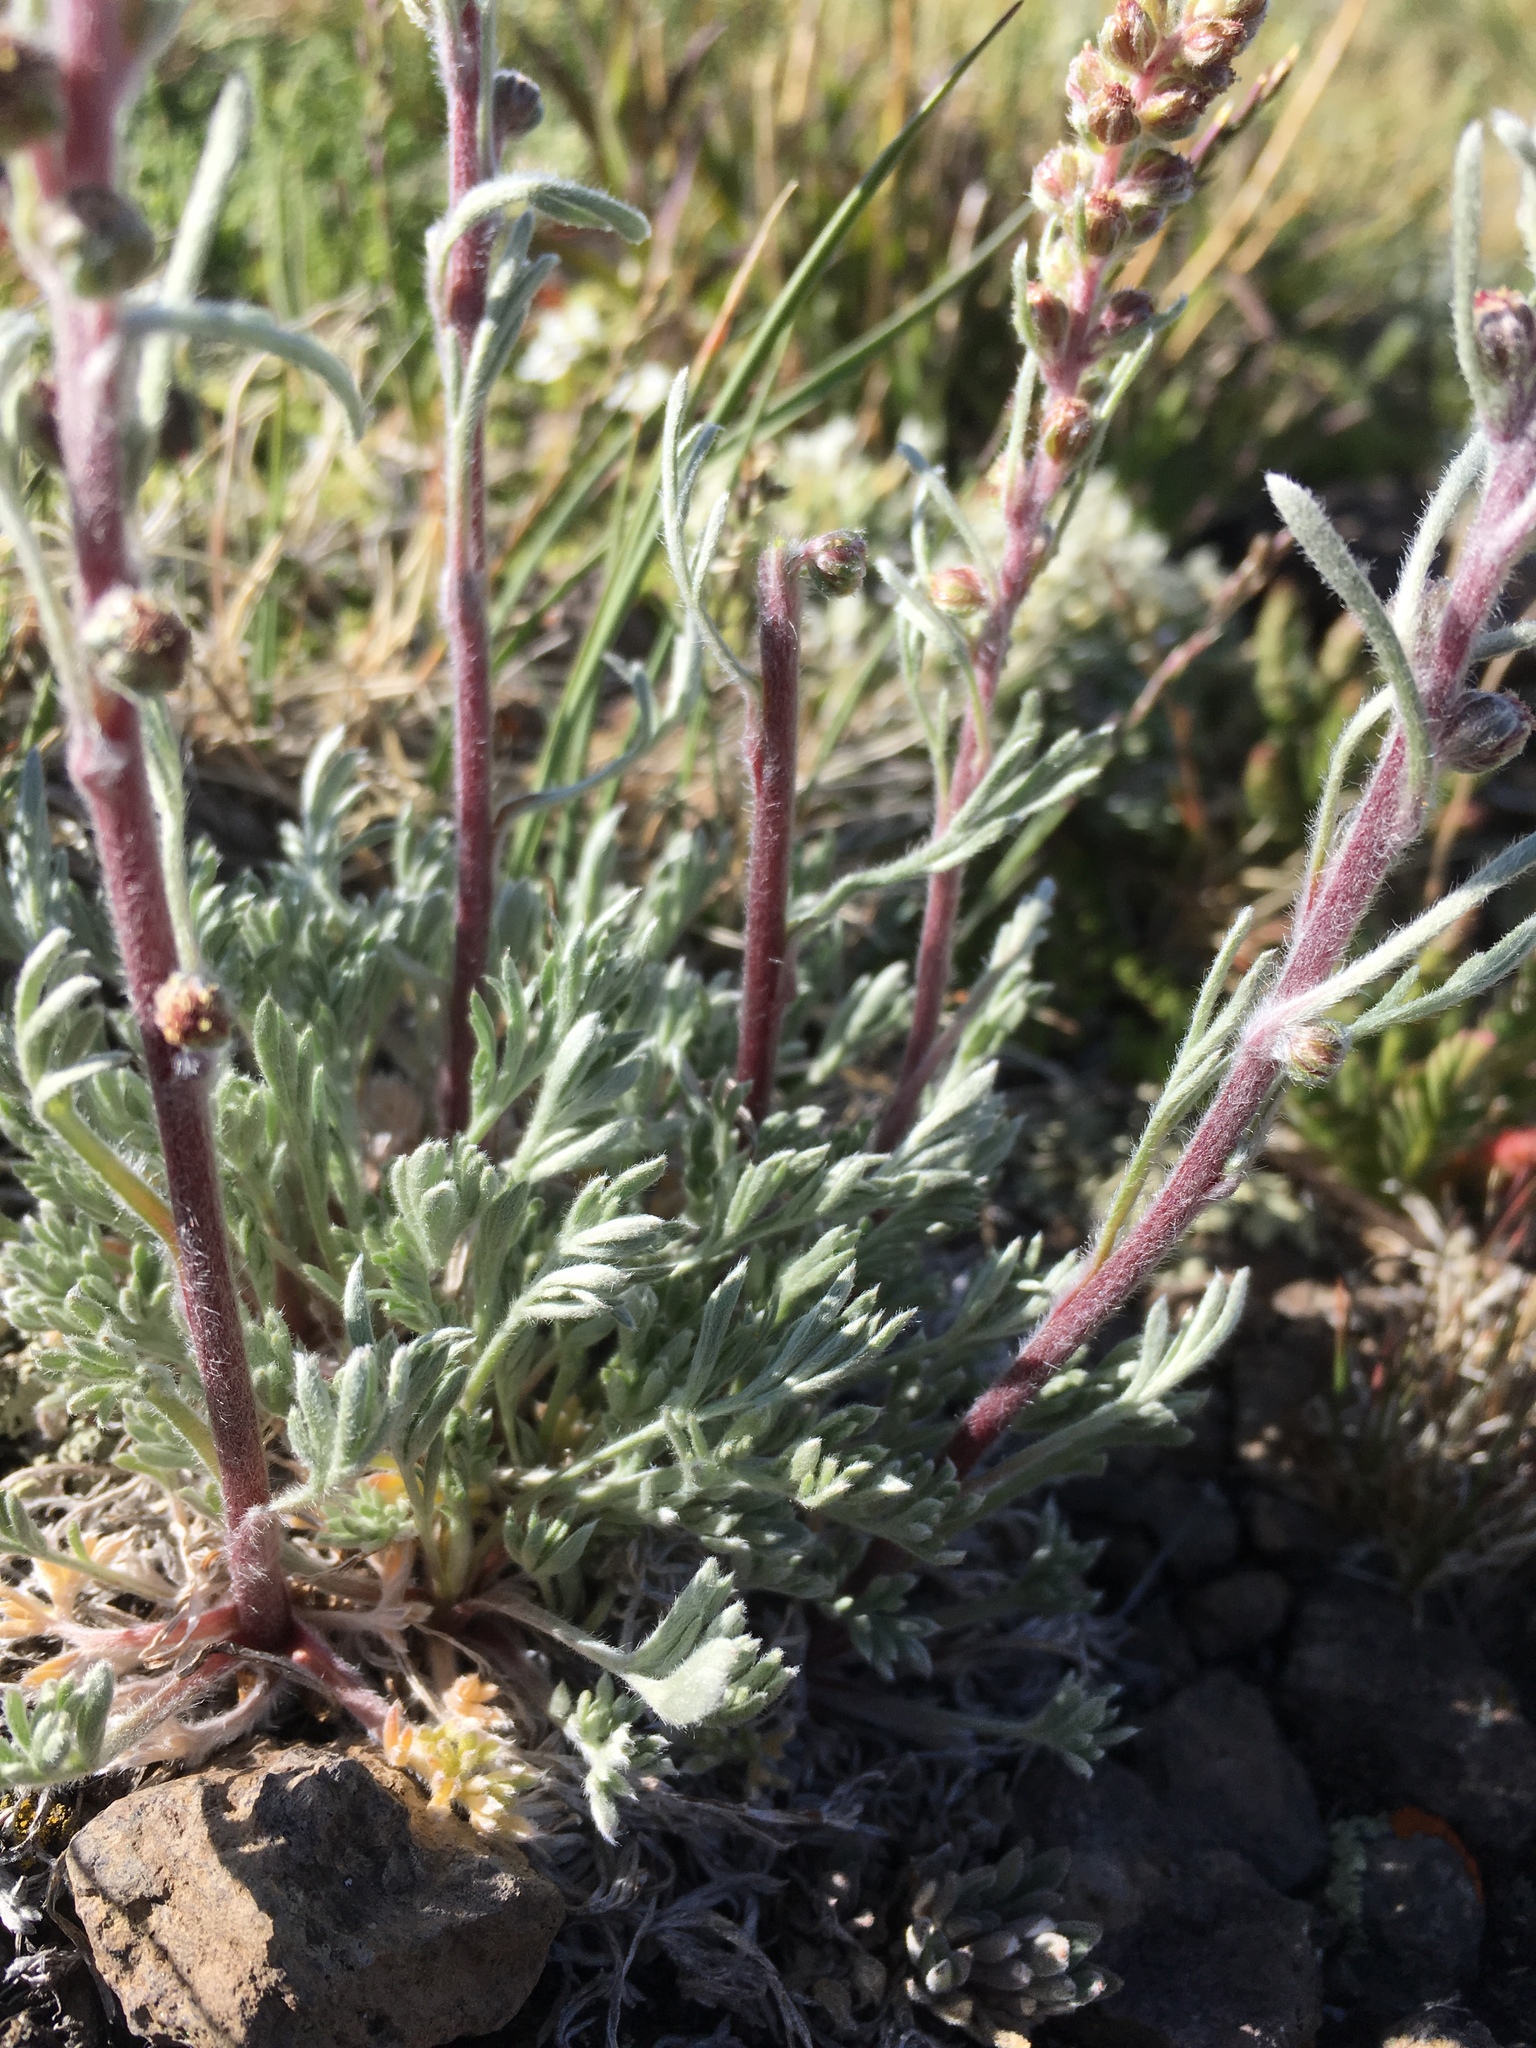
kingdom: Plantae
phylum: Tracheophyta
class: Magnoliopsida
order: Asterales
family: Asteraceae
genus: Artemisia
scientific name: Artemisia borealis
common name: Boreal sage
